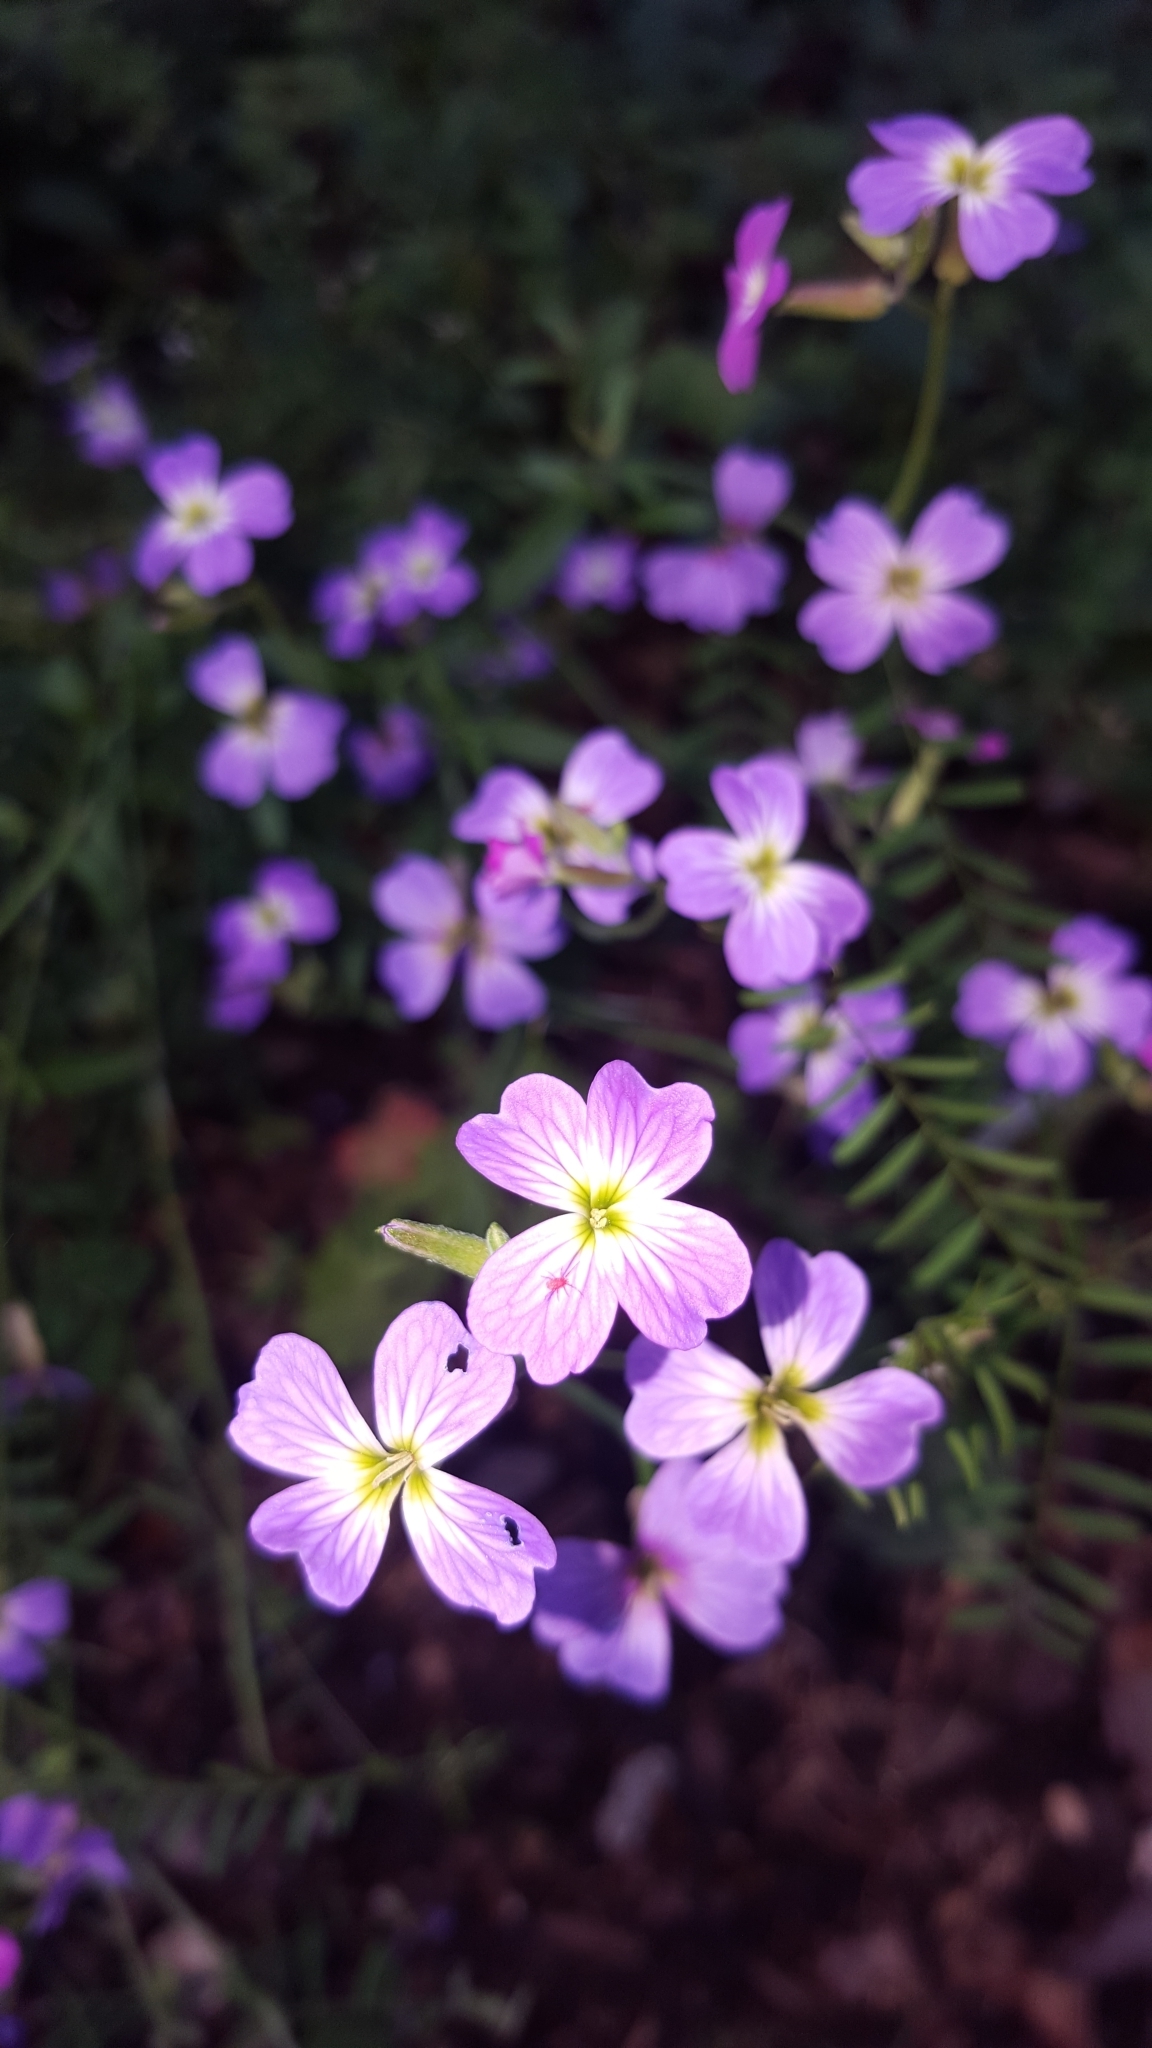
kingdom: Plantae
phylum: Tracheophyta
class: Magnoliopsida
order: Brassicales
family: Brassicaceae
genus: Malcolmia
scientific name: Malcolmia maritima
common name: Virginia stock
